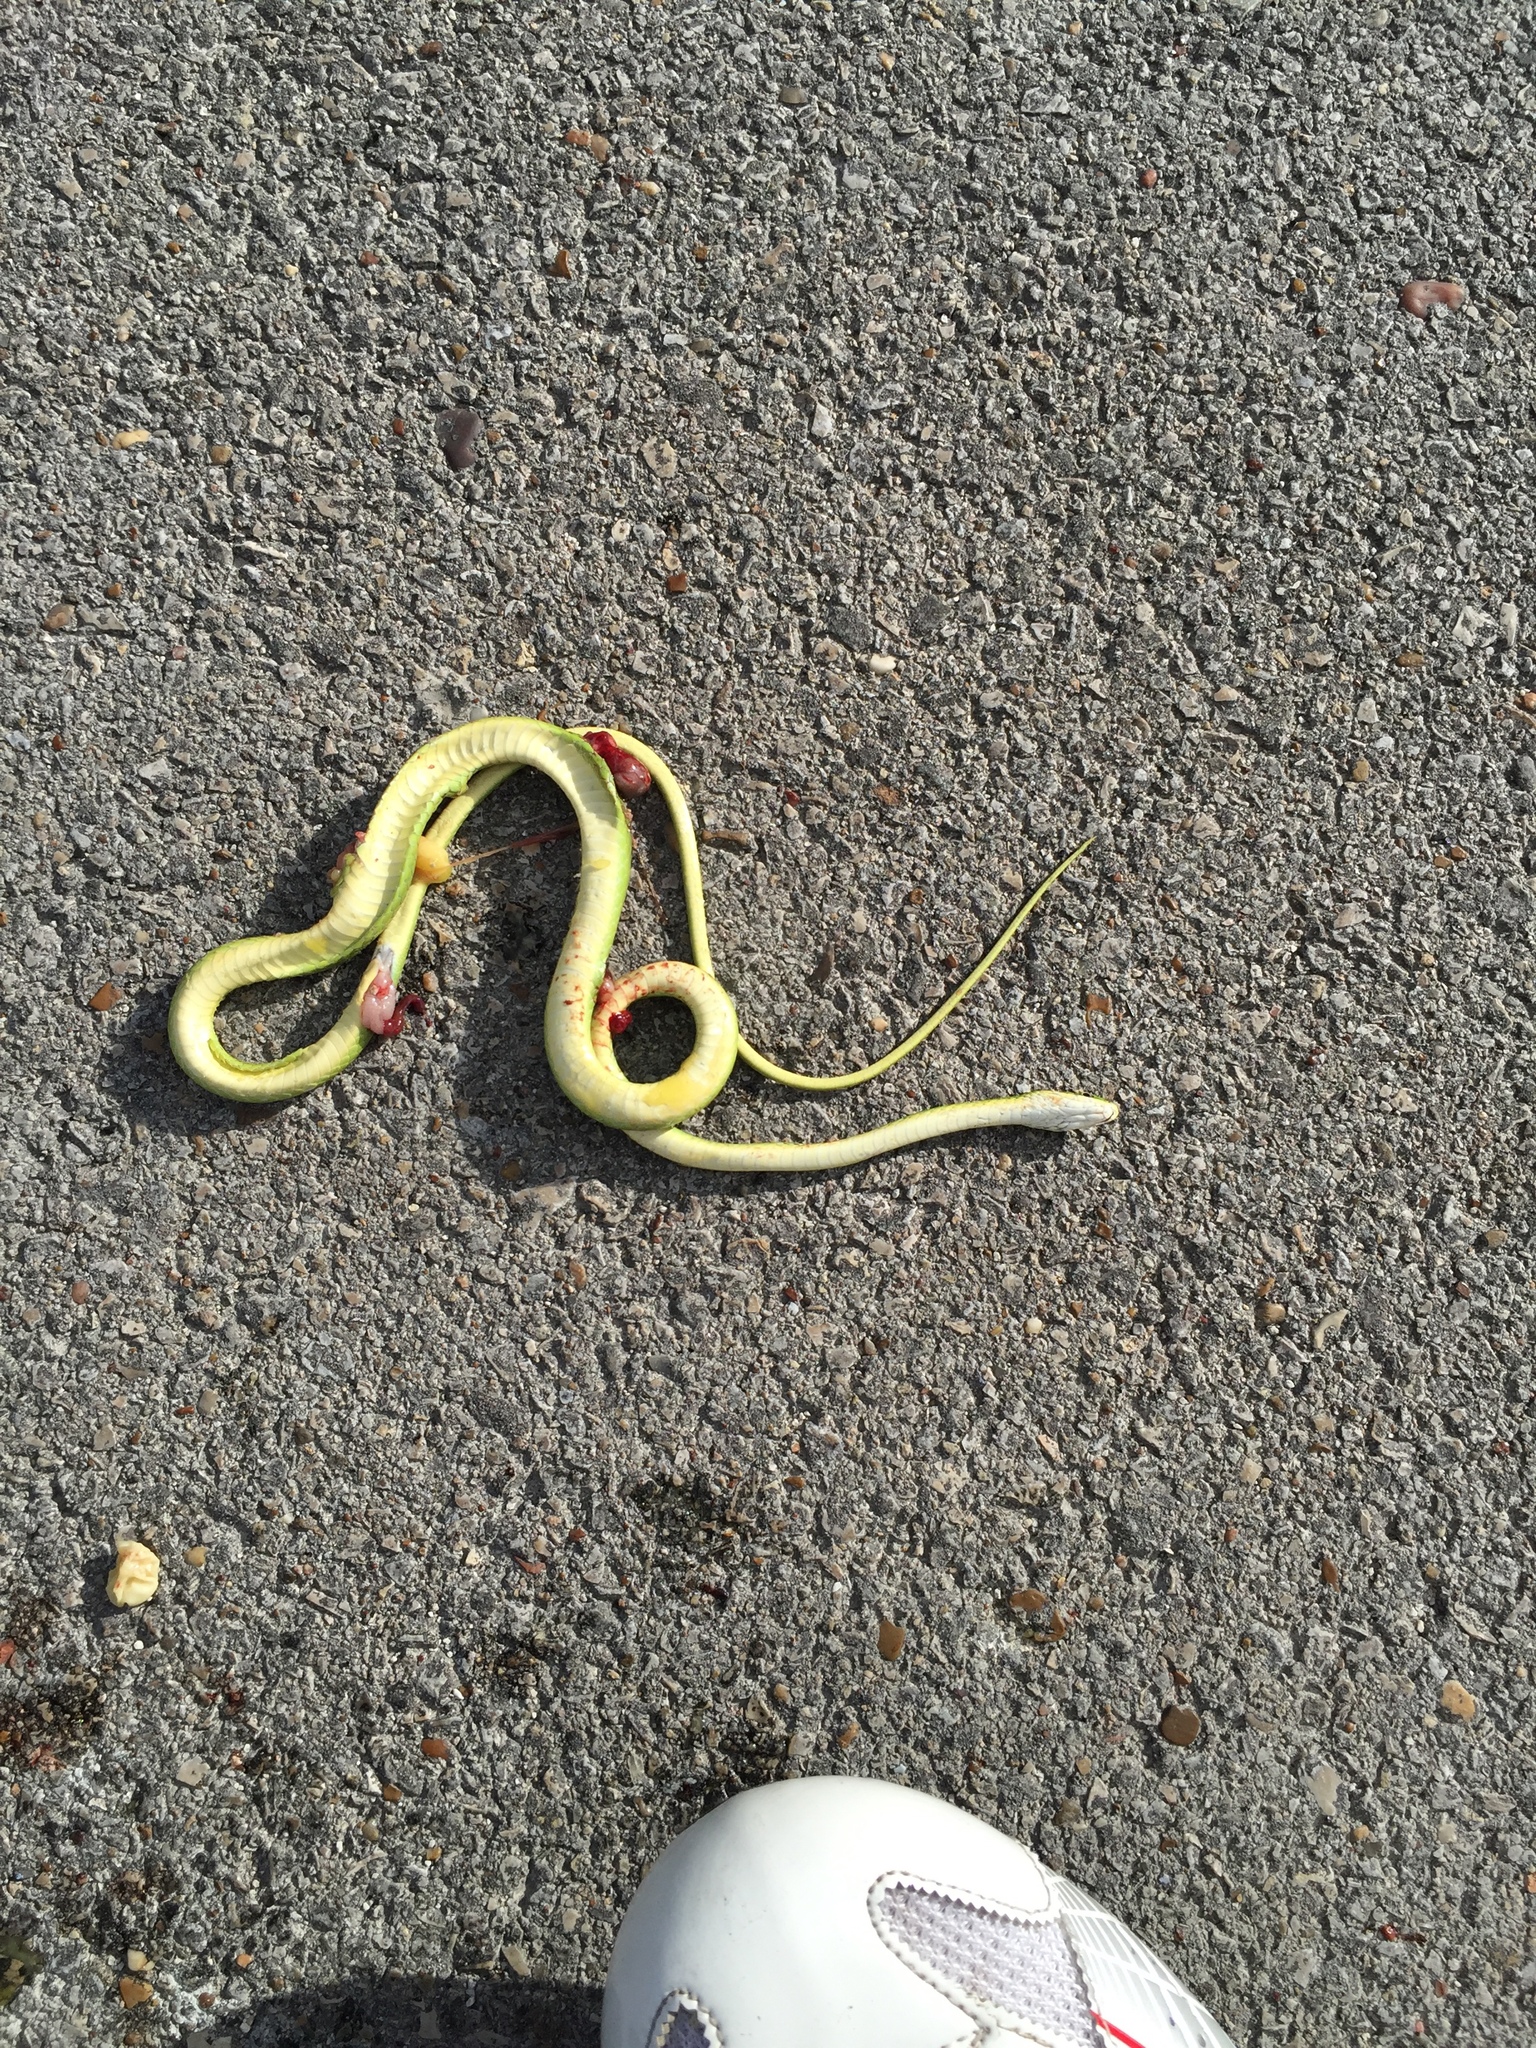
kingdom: Animalia
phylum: Chordata
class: Squamata
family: Colubridae
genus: Opheodrys
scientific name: Opheodrys aestivus
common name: Rough greensnake
